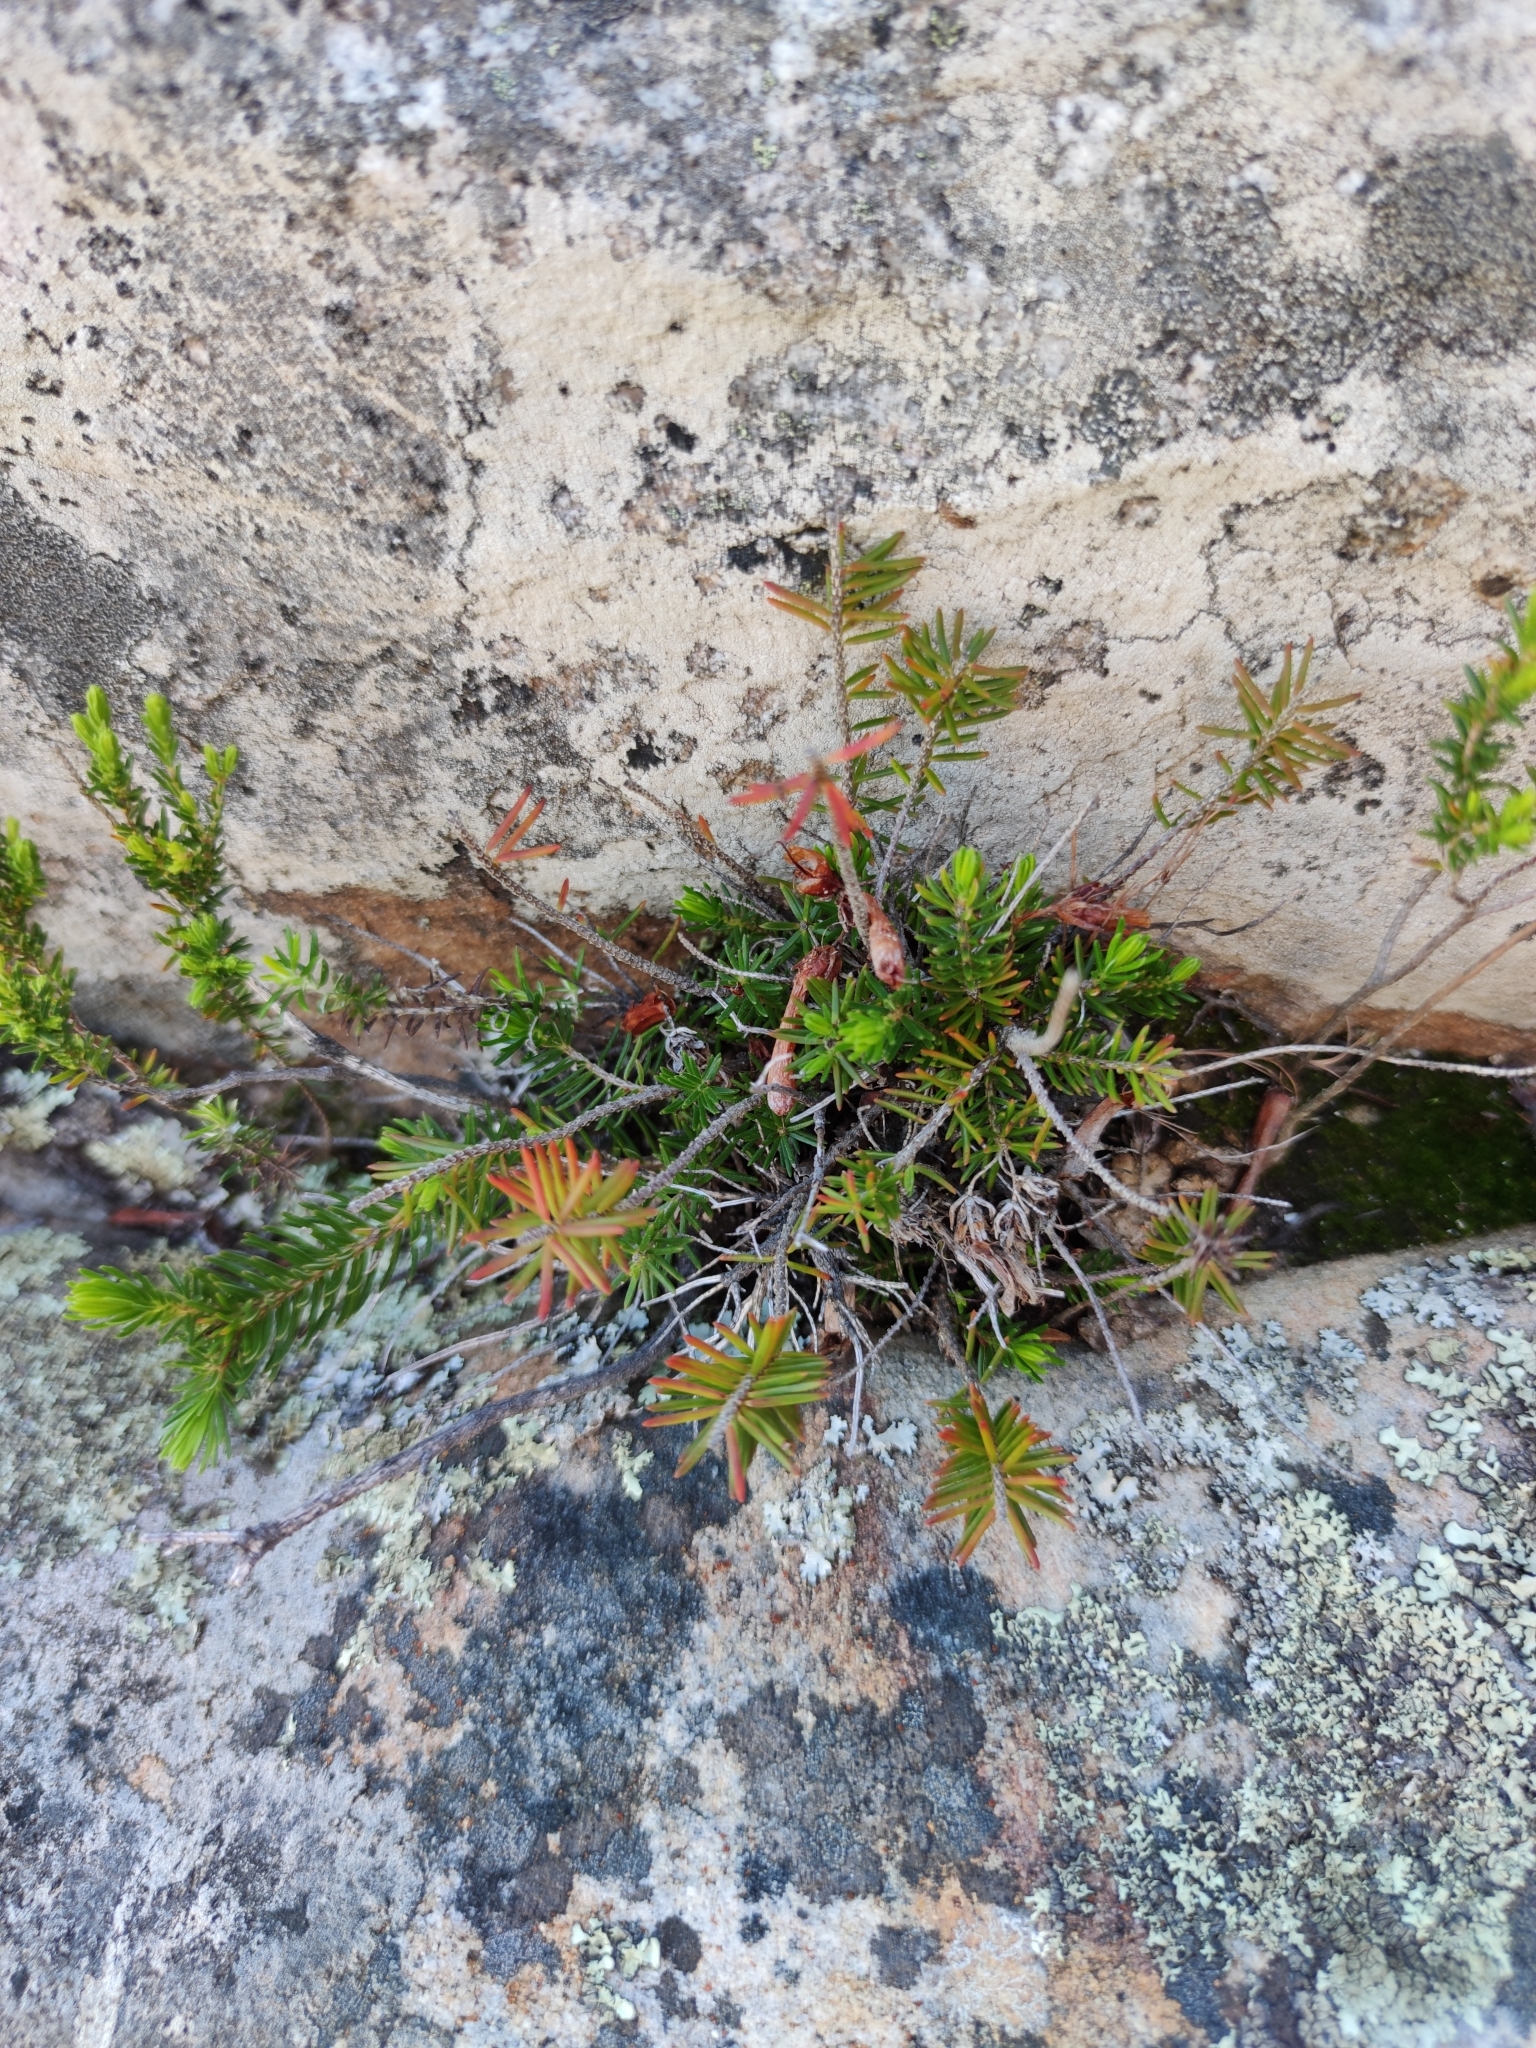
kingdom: Plantae
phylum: Tracheophyta
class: Magnoliopsida
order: Ericales
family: Ericaceae
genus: Erica
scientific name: Erica nevillei
